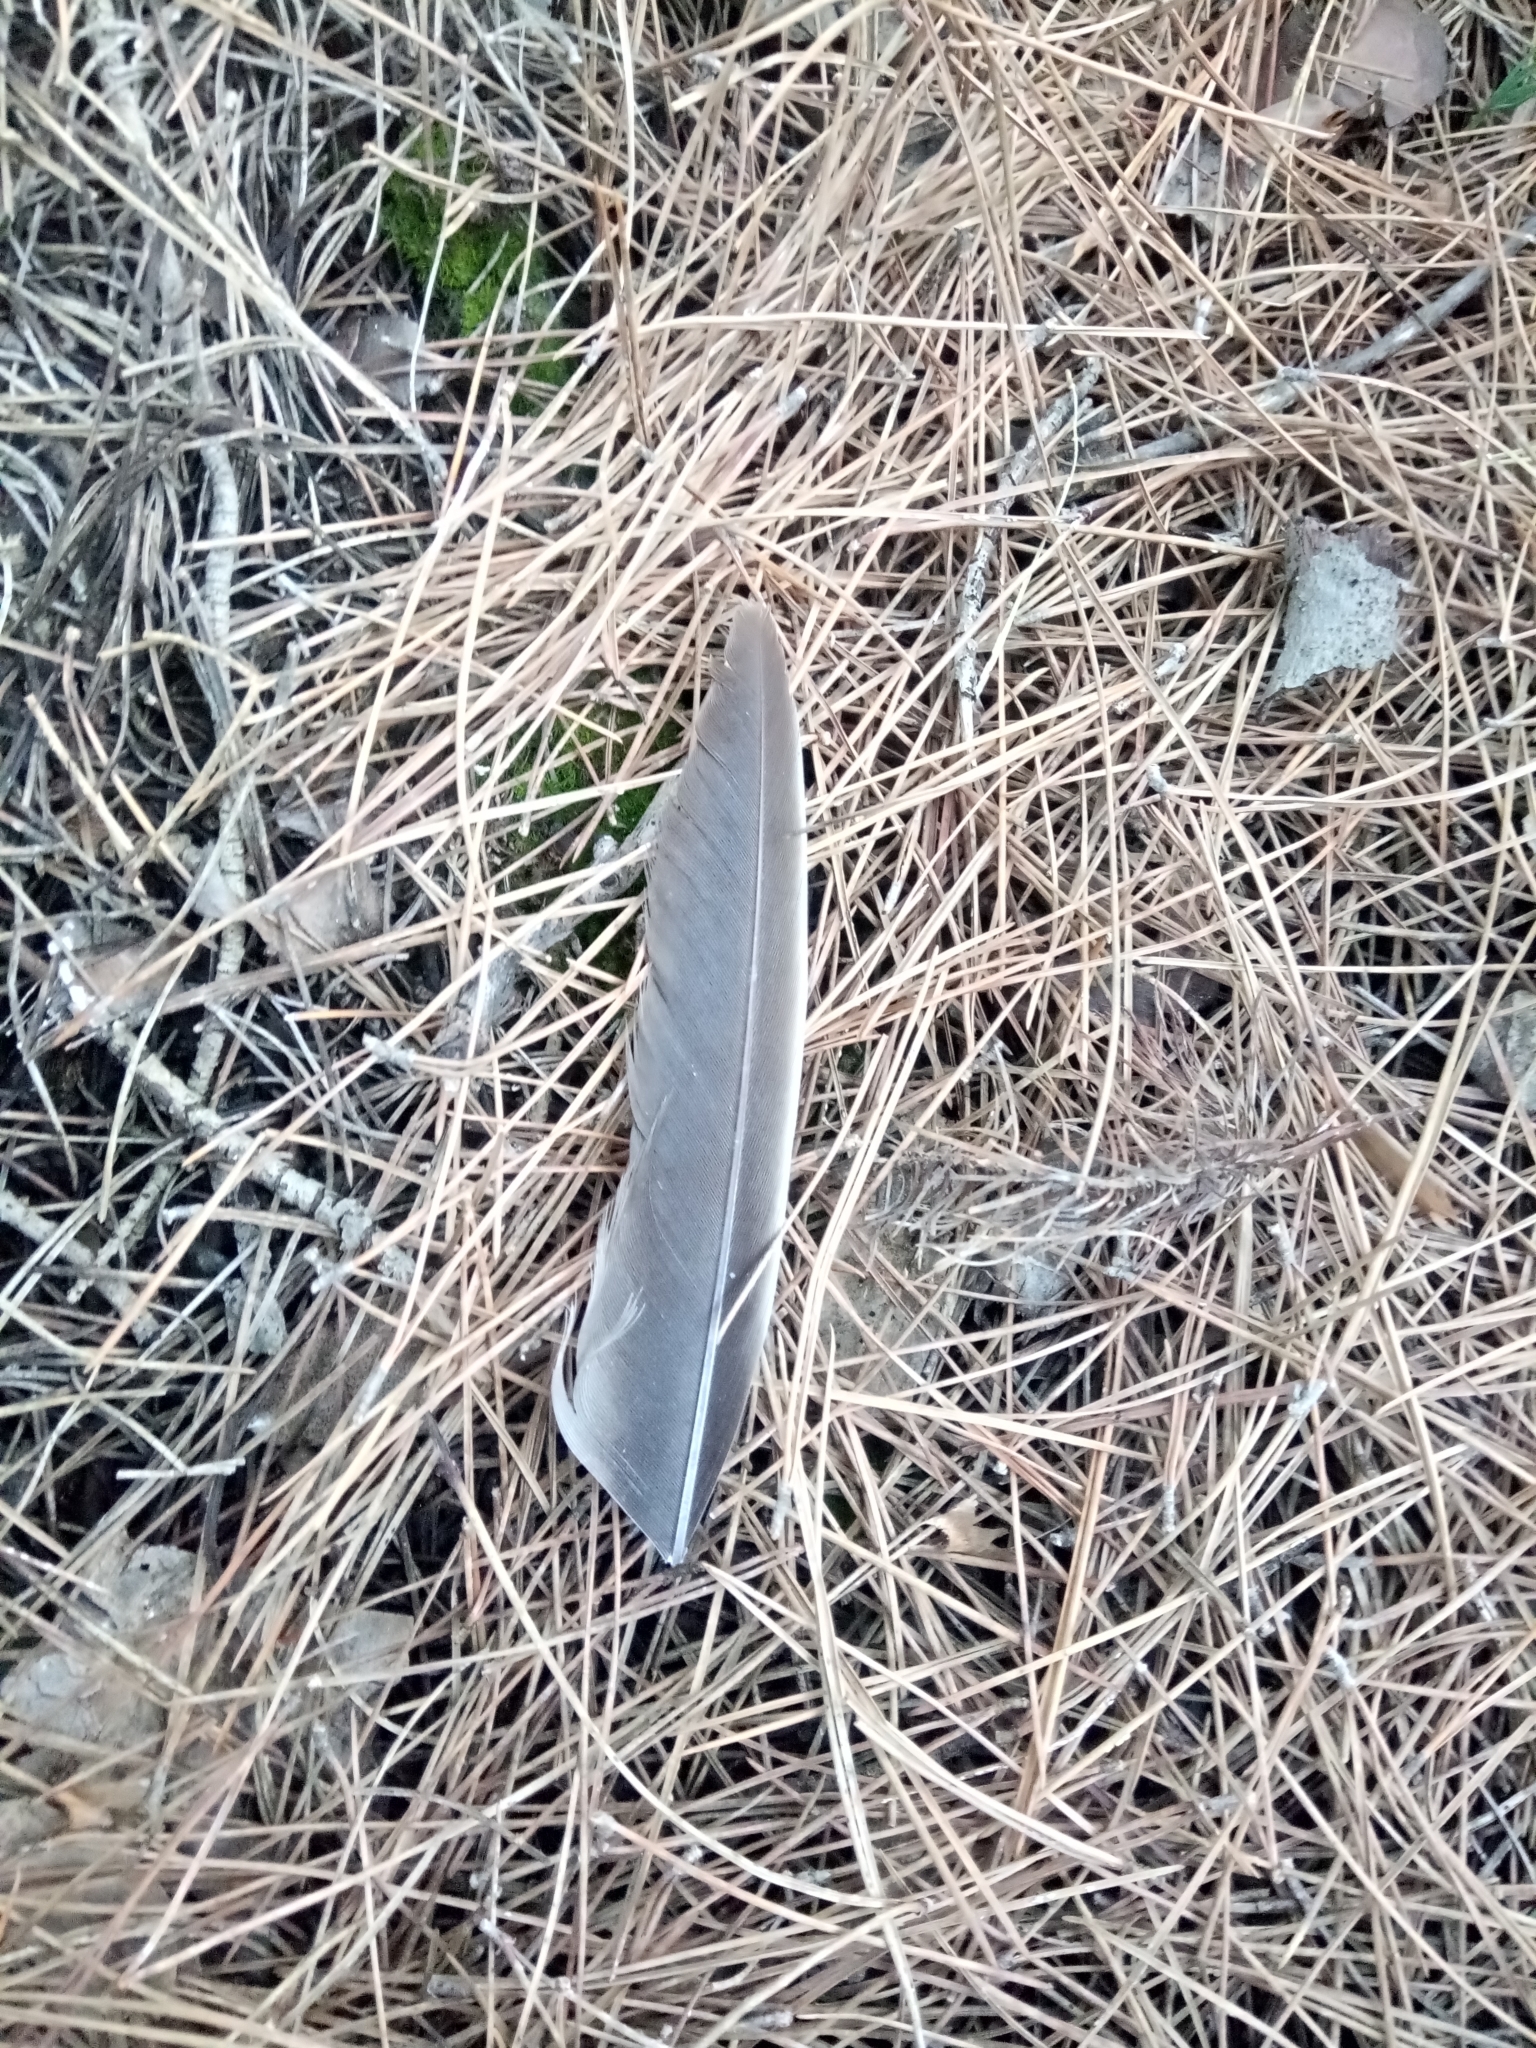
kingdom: Animalia
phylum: Chordata
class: Aves
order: Columbiformes
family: Columbidae
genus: Columba
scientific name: Columba palumbus
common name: Common wood pigeon
